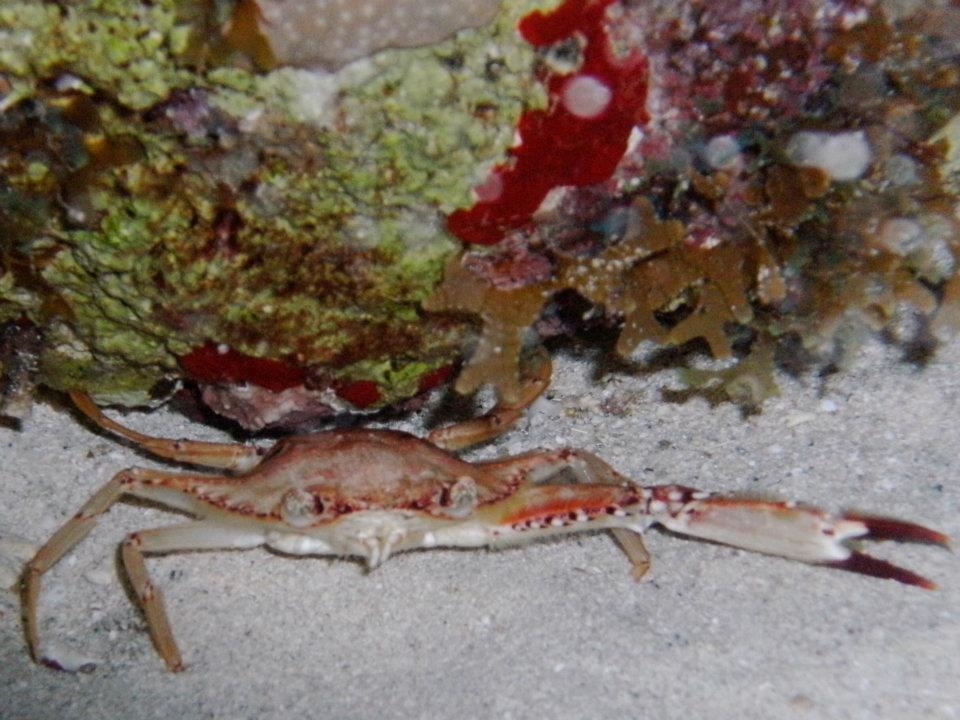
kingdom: Animalia
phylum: Arthropoda
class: Malacostraca
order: Decapoda
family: Portunidae
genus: Achelous
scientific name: Achelous sebae
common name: Ocellate swimming crab
